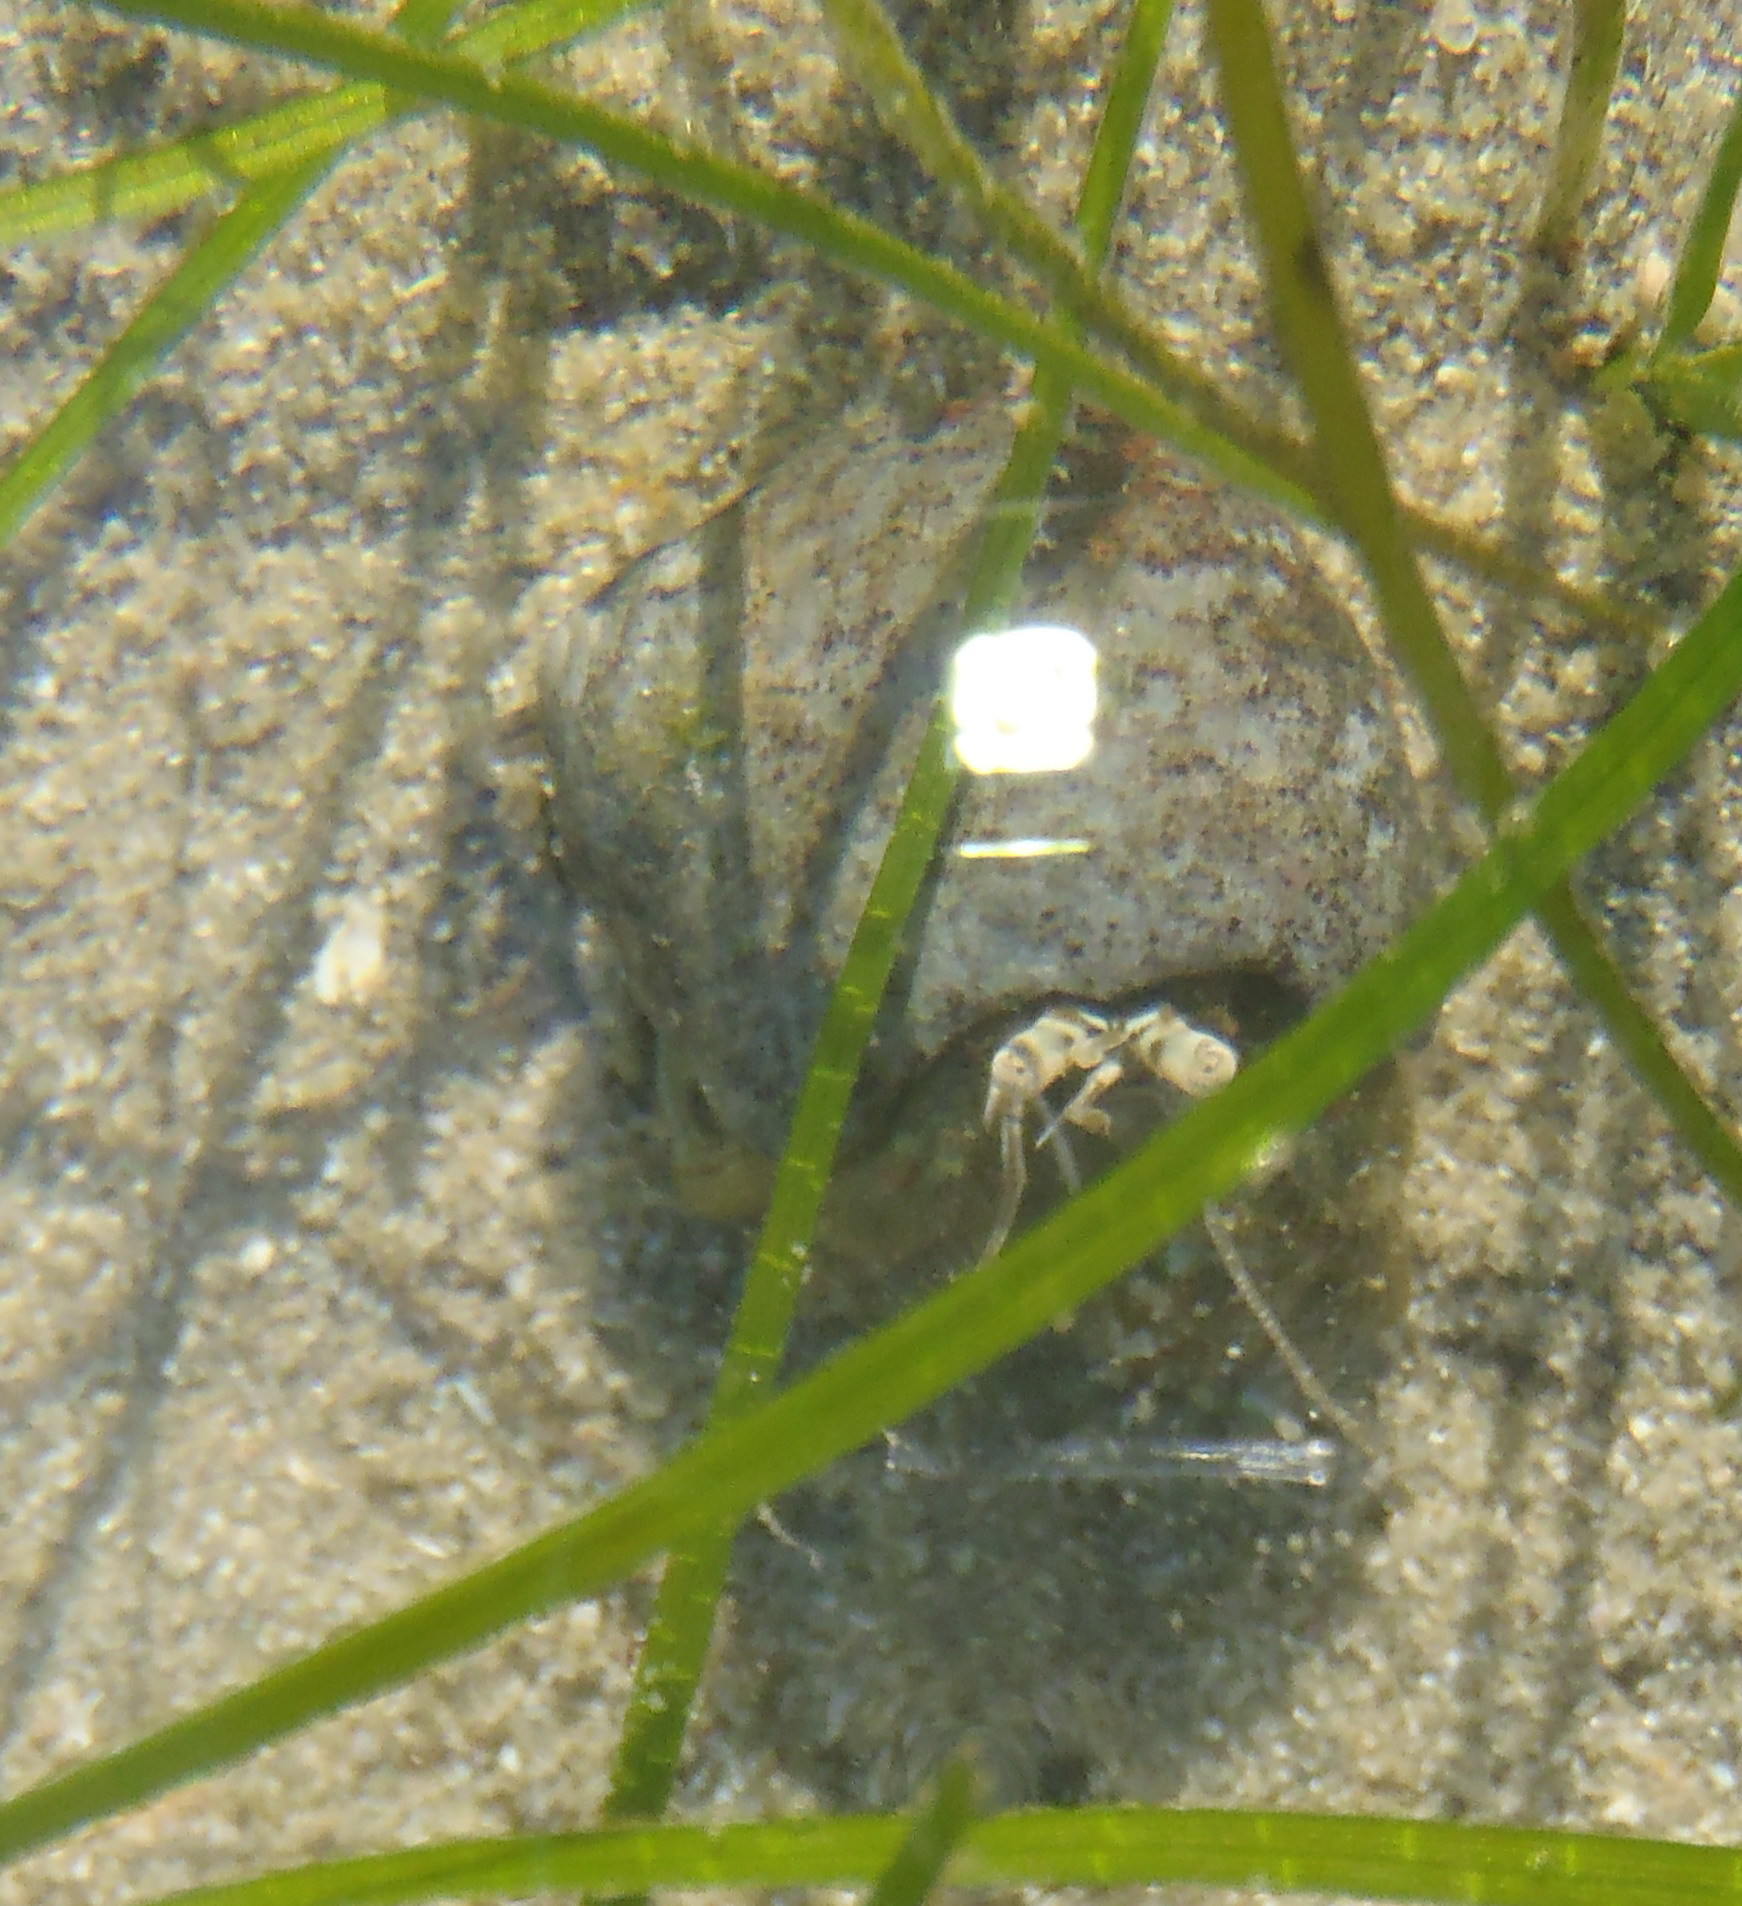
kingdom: Animalia
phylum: Arthropoda
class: Malacostraca
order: Decapoda
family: Diogenidae
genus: Diogenes
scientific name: Diogenes brevirostris
